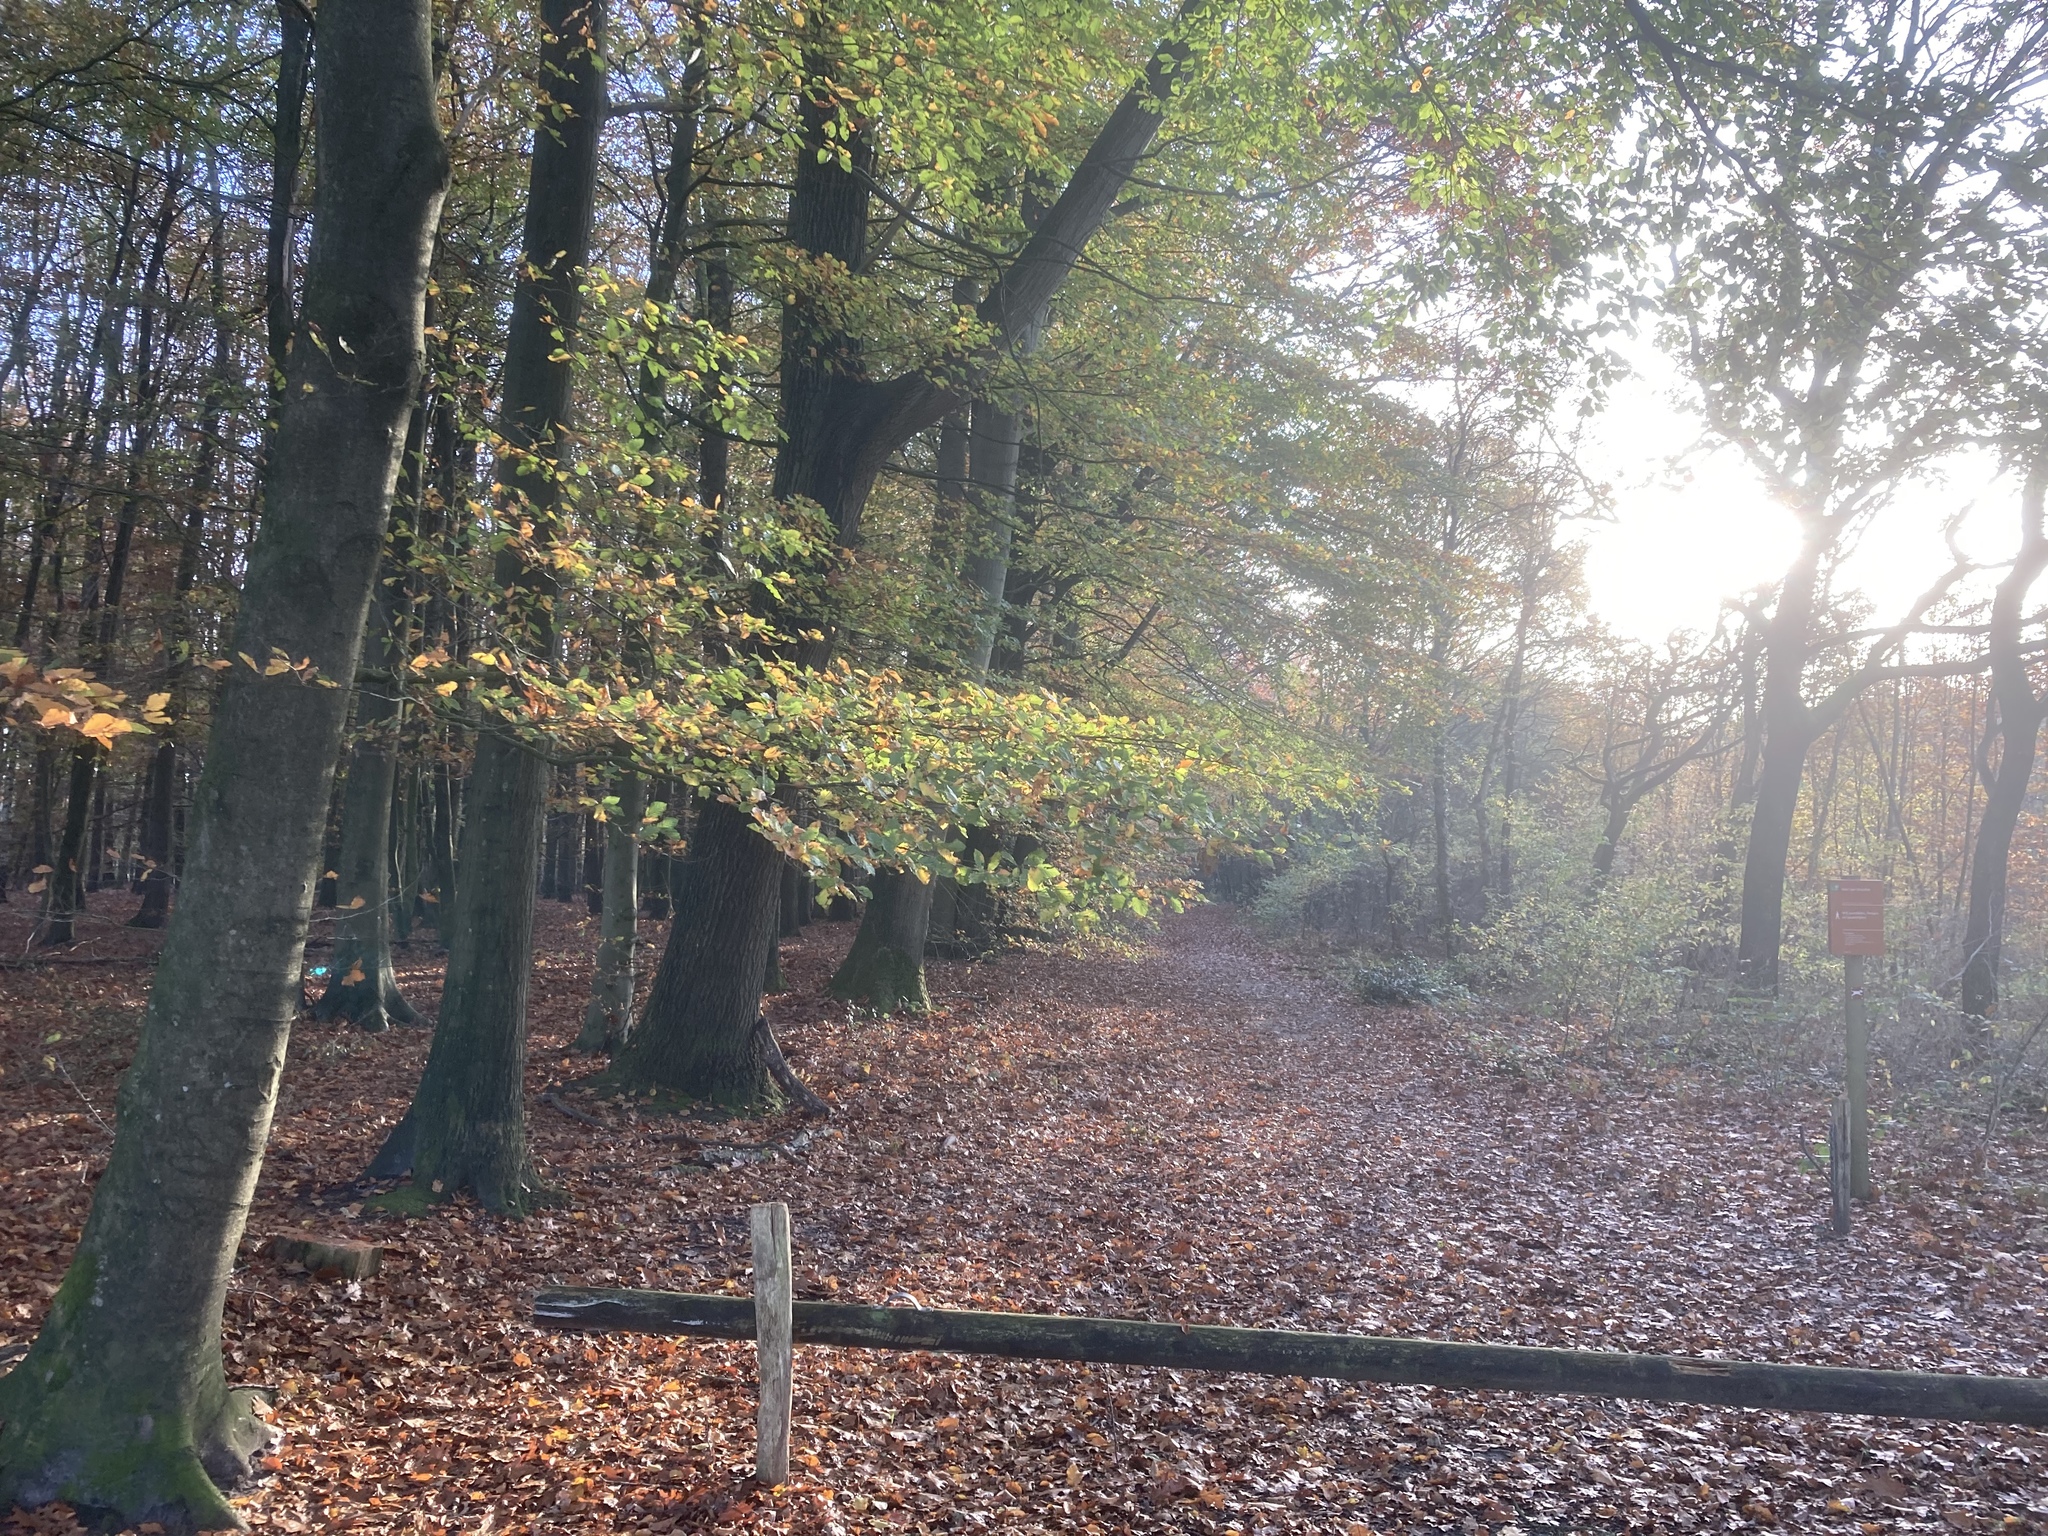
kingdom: Plantae
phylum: Tracheophyta
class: Magnoliopsida
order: Fagales
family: Fagaceae
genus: Fagus
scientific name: Fagus sylvatica
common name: Beech
